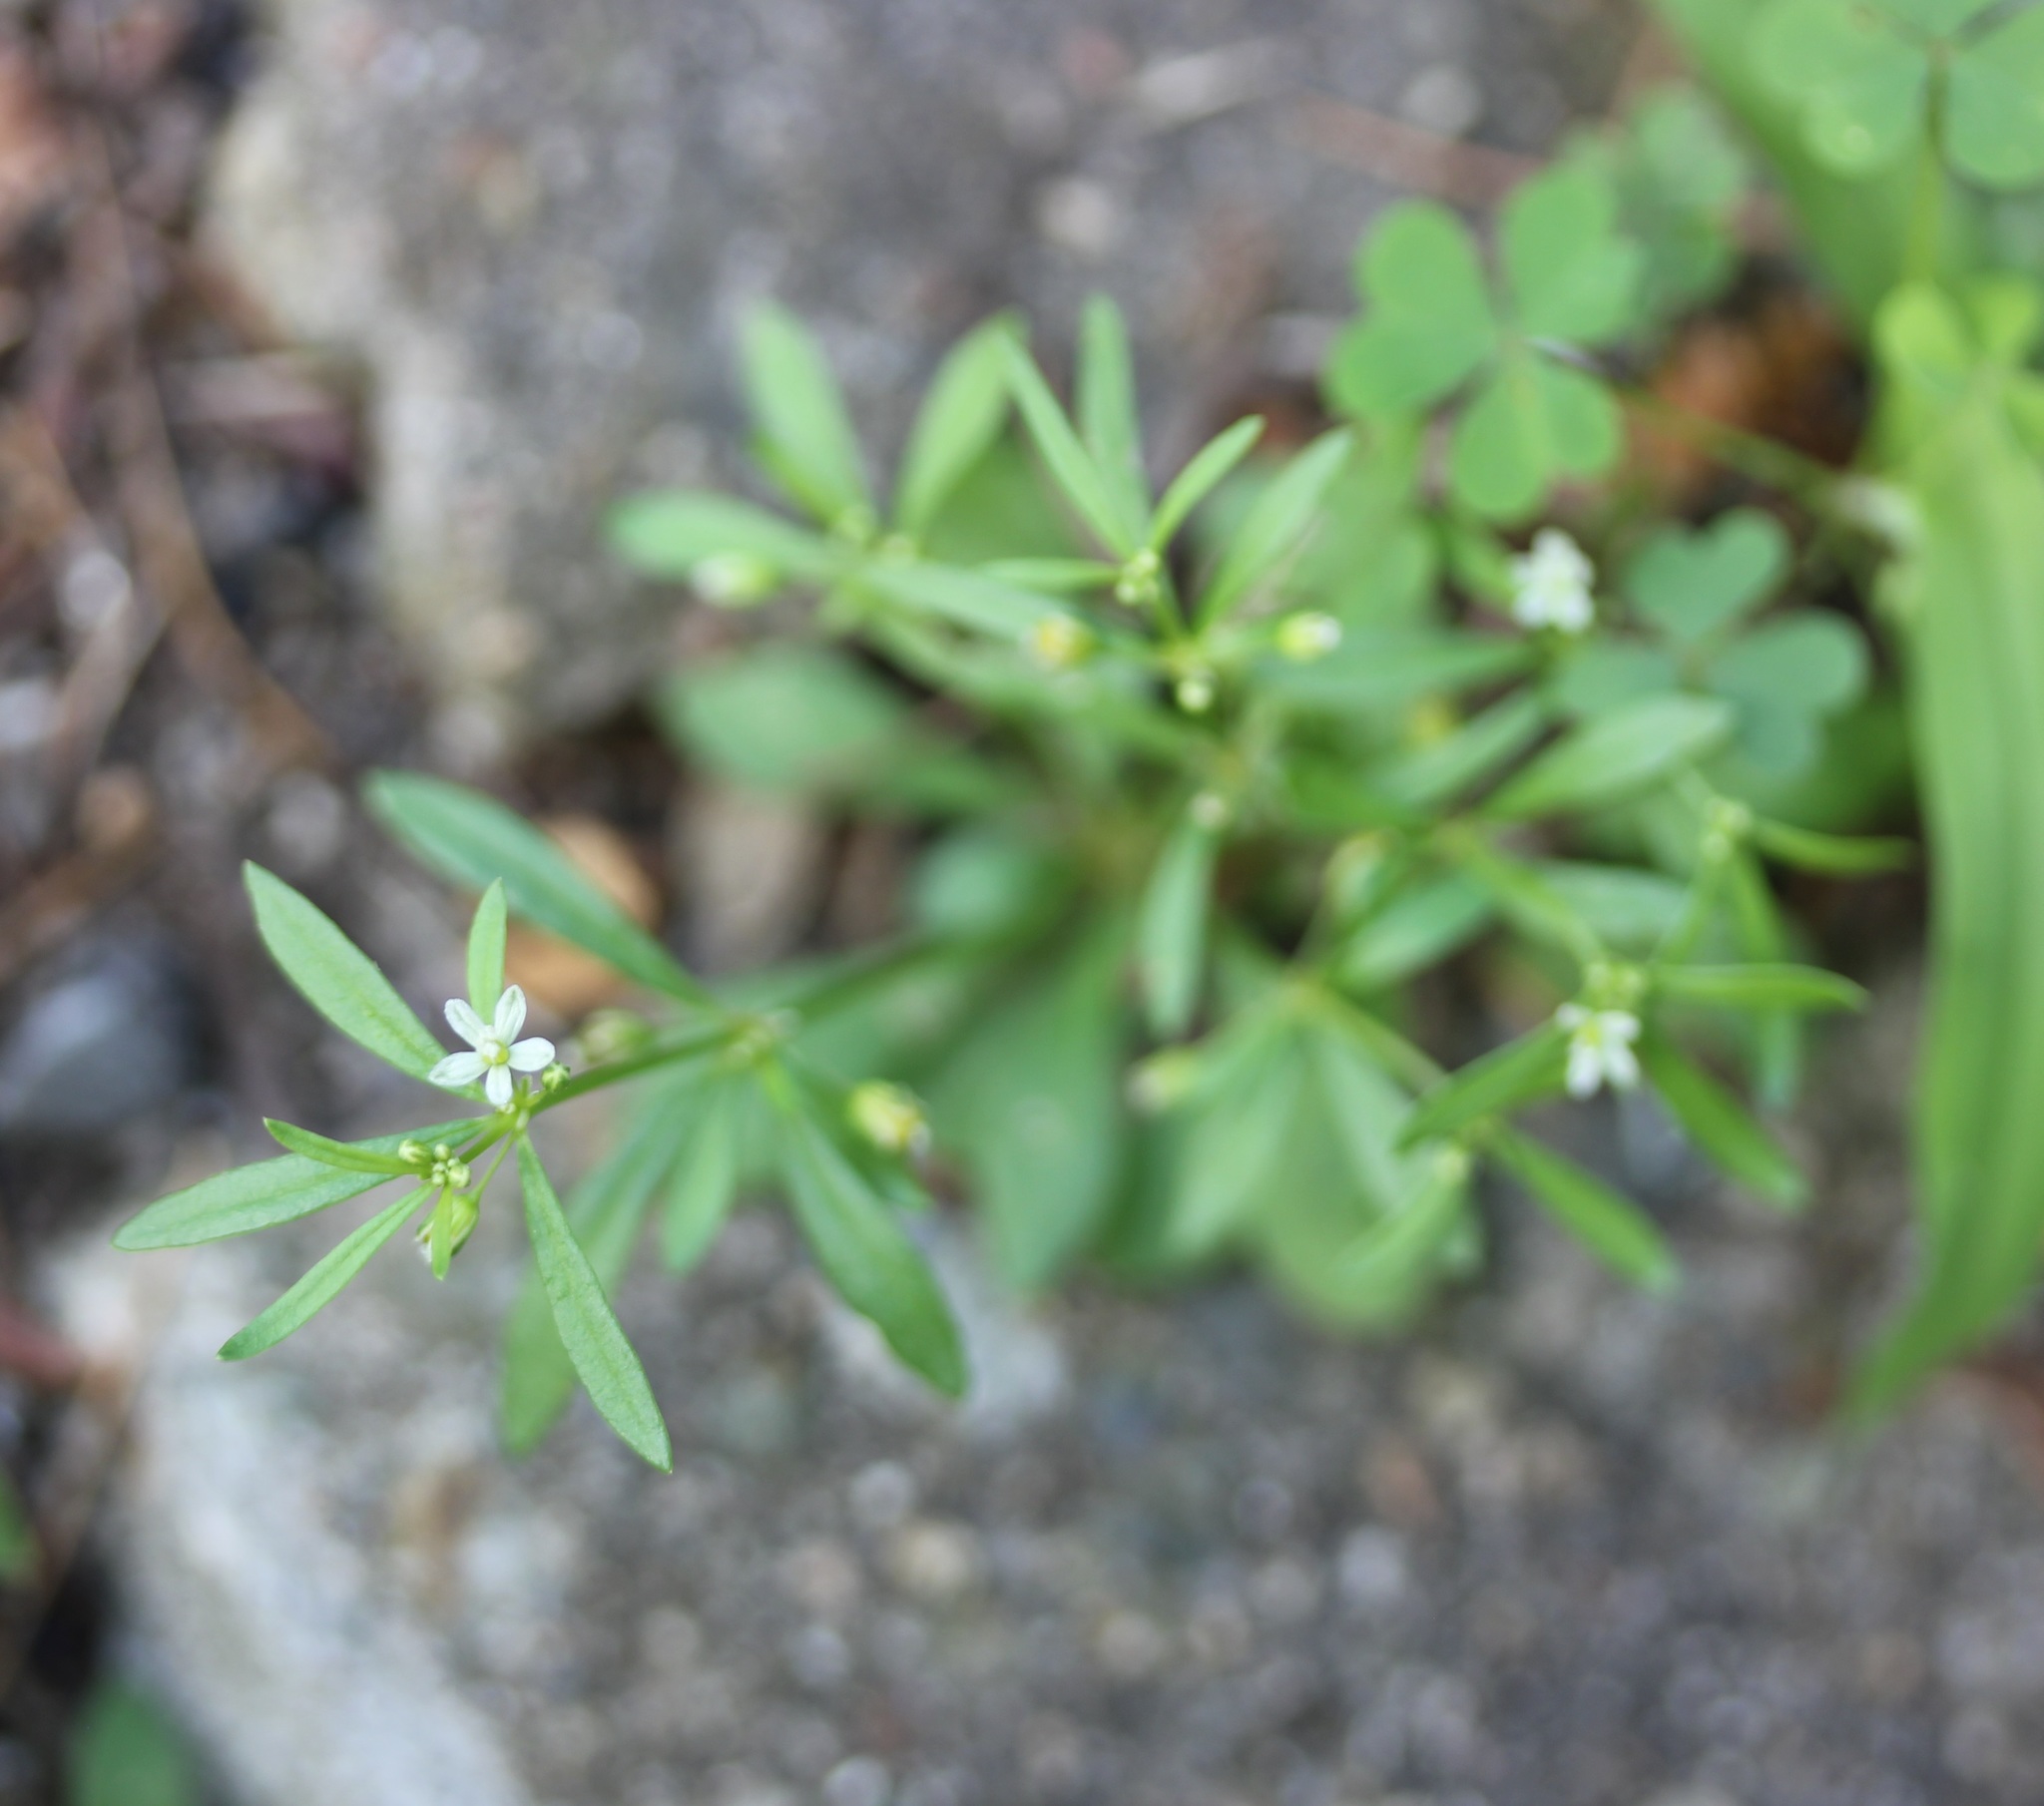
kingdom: Plantae
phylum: Tracheophyta
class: Magnoliopsida
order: Caryophyllales
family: Molluginaceae
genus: Mollugo
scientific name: Mollugo verticillata
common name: Green carpetweed
